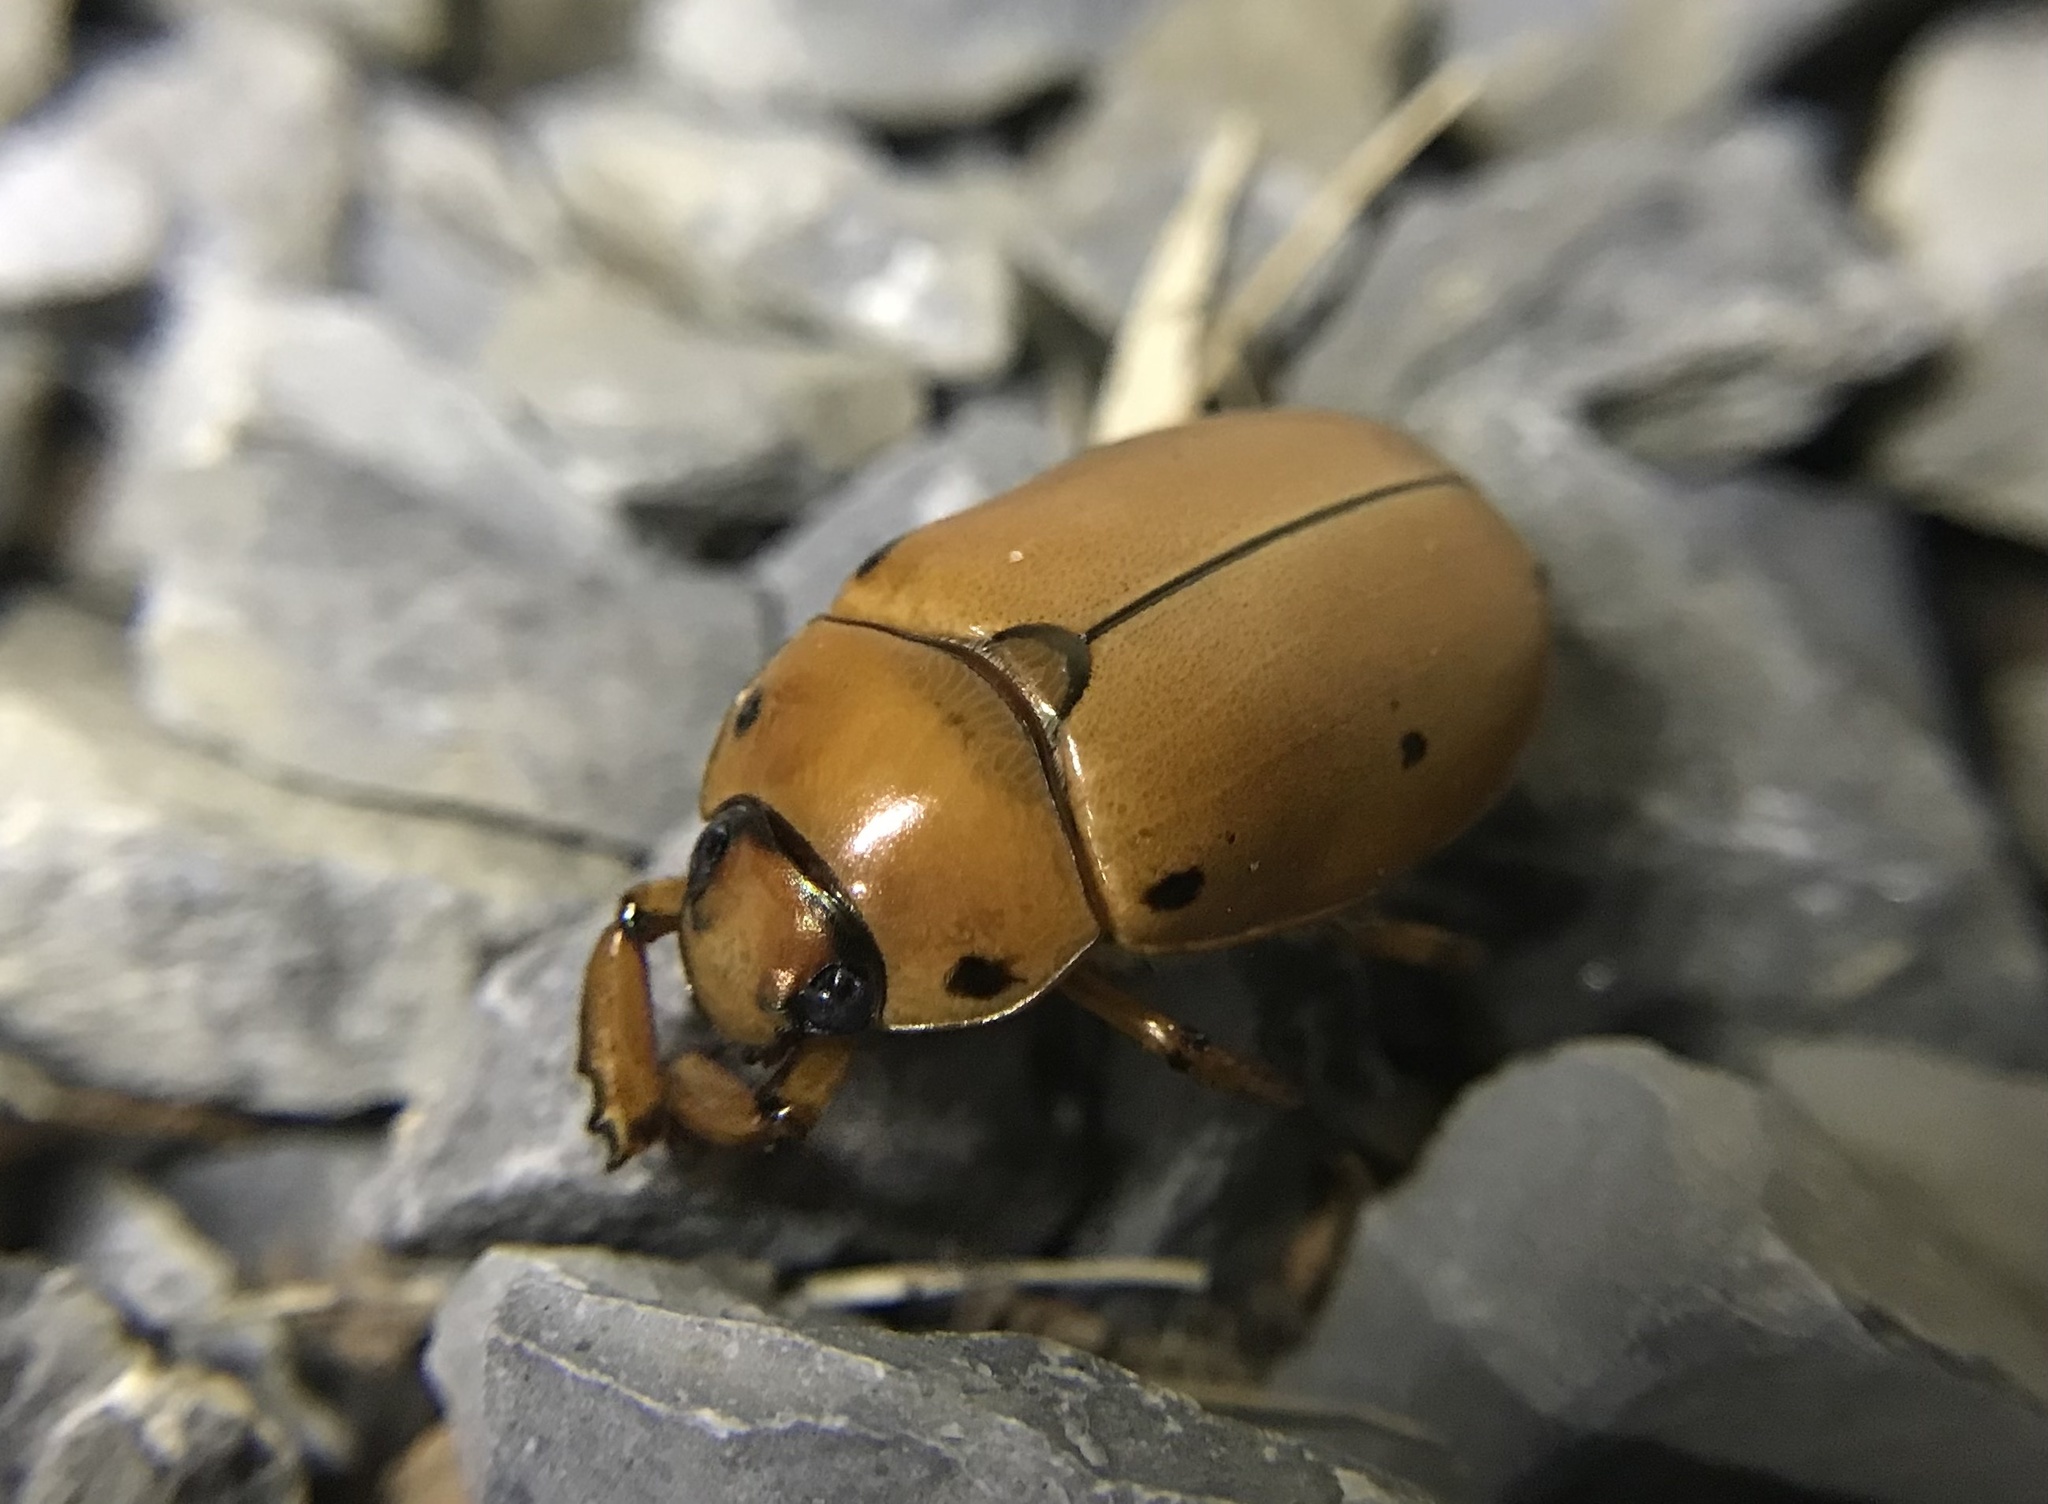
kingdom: Animalia
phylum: Arthropoda
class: Insecta
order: Coleoptera
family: Scarabaeidae
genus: Pelidnota
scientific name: Pelidnota punctata
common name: Grapevine beetle
